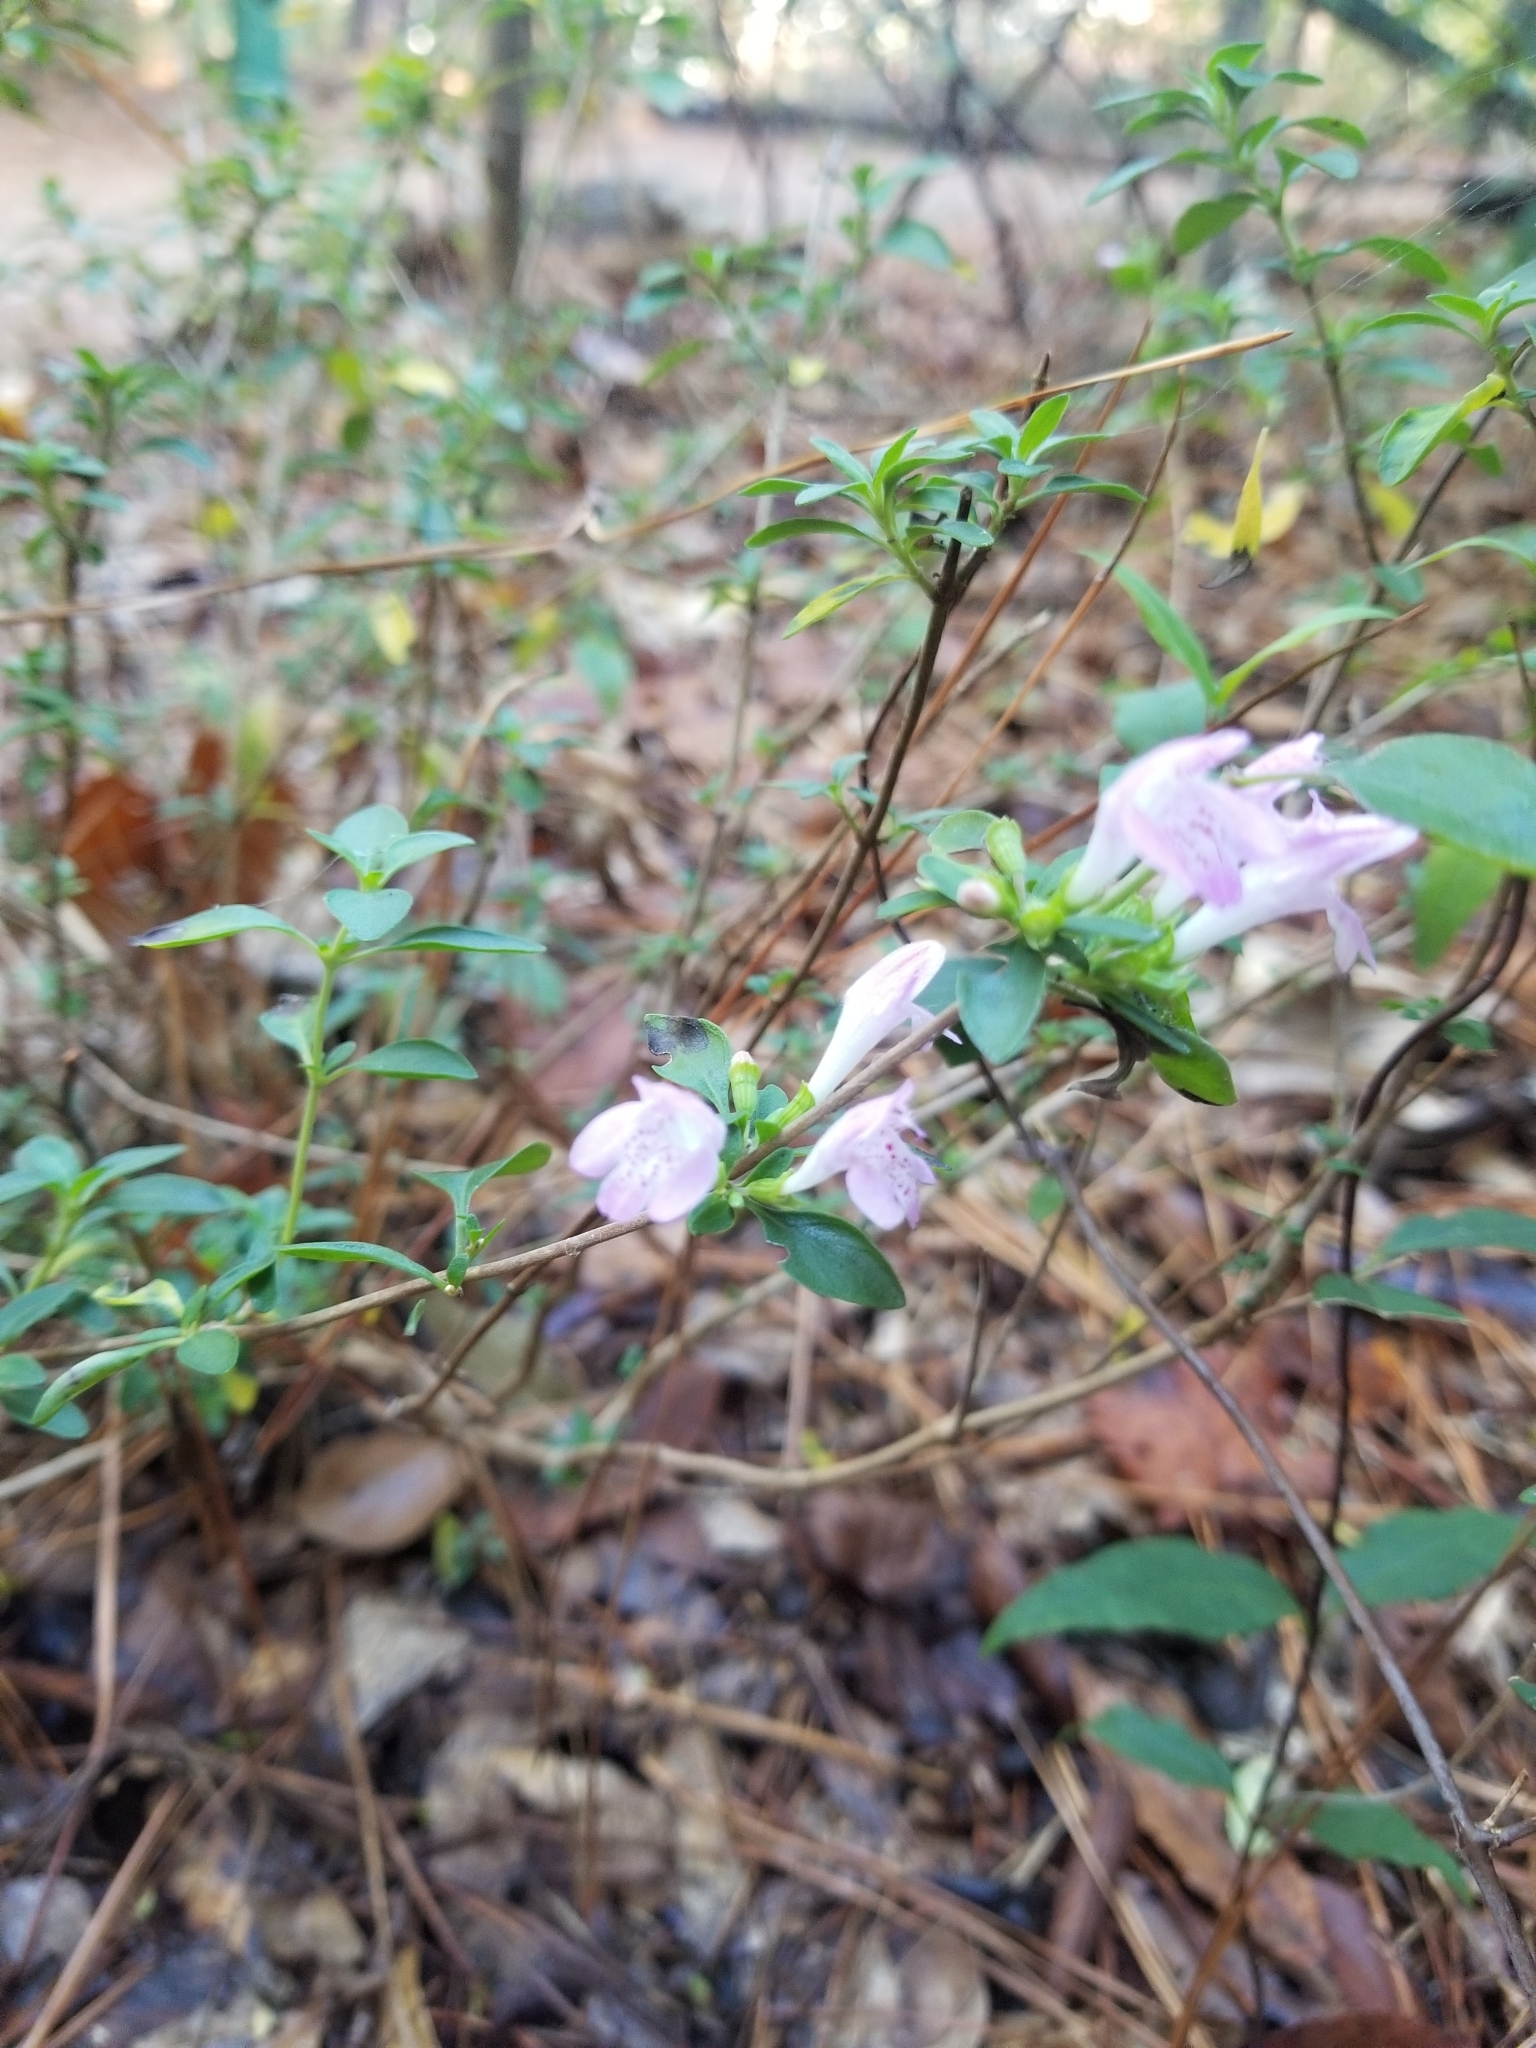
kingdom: Plantae
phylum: Tracheophyta
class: Magnoliopsida
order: Lamiales
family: Lamiaceae
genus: Clinopodium
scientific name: Clinopodium carolinianum
